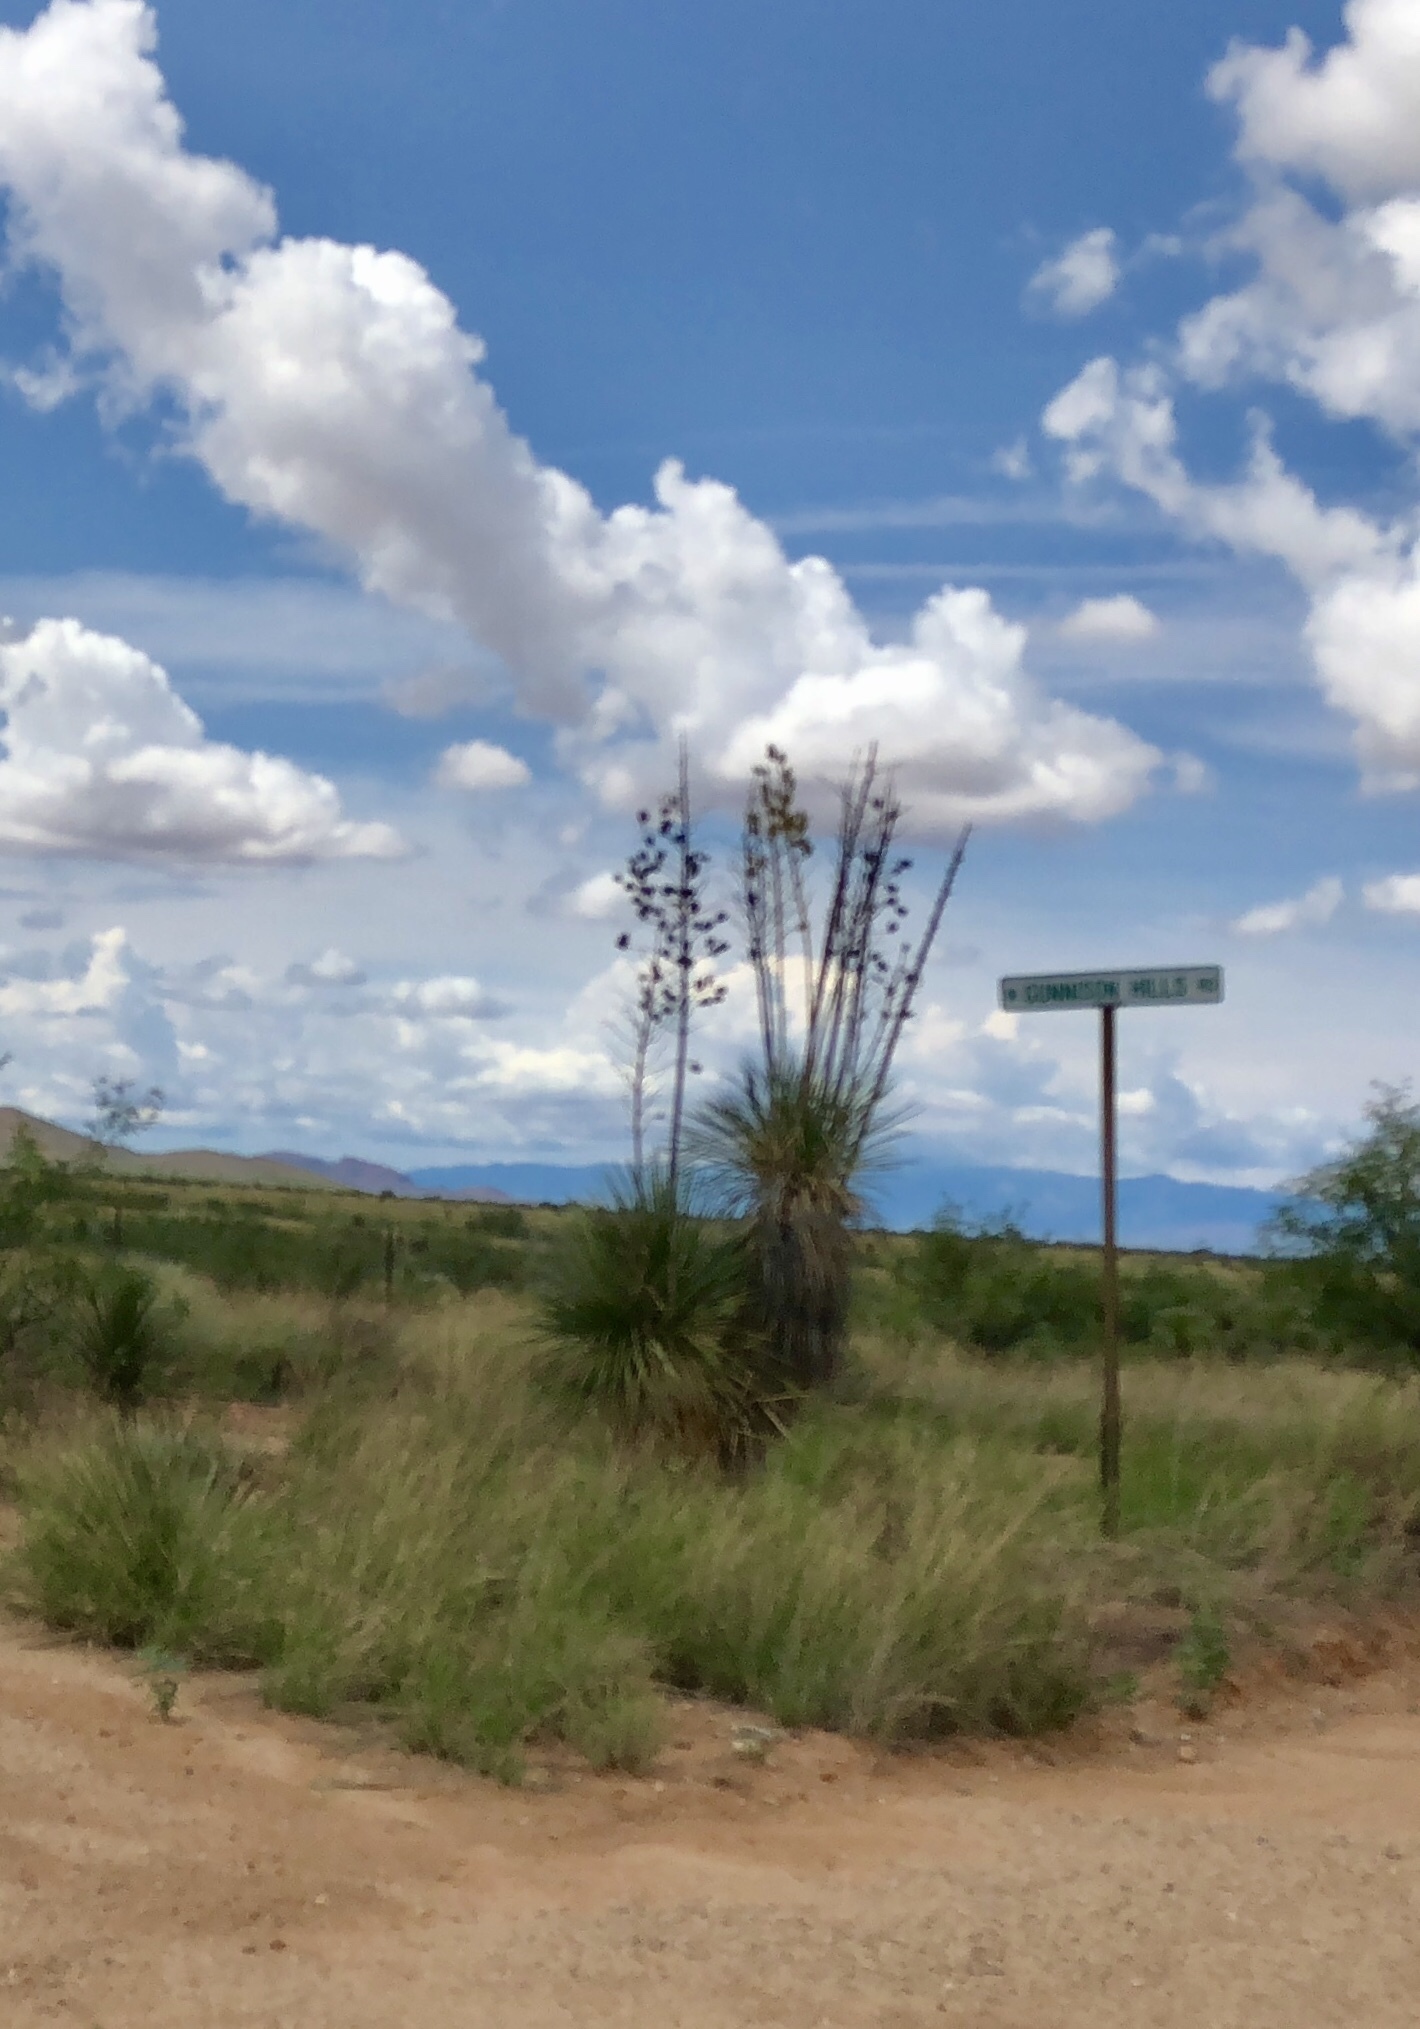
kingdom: Plantae
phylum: Tracheophyta
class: Liliopsida
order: Asparagales
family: Asparagaceae
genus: Yucca
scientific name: Yucca elata
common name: Palmella
